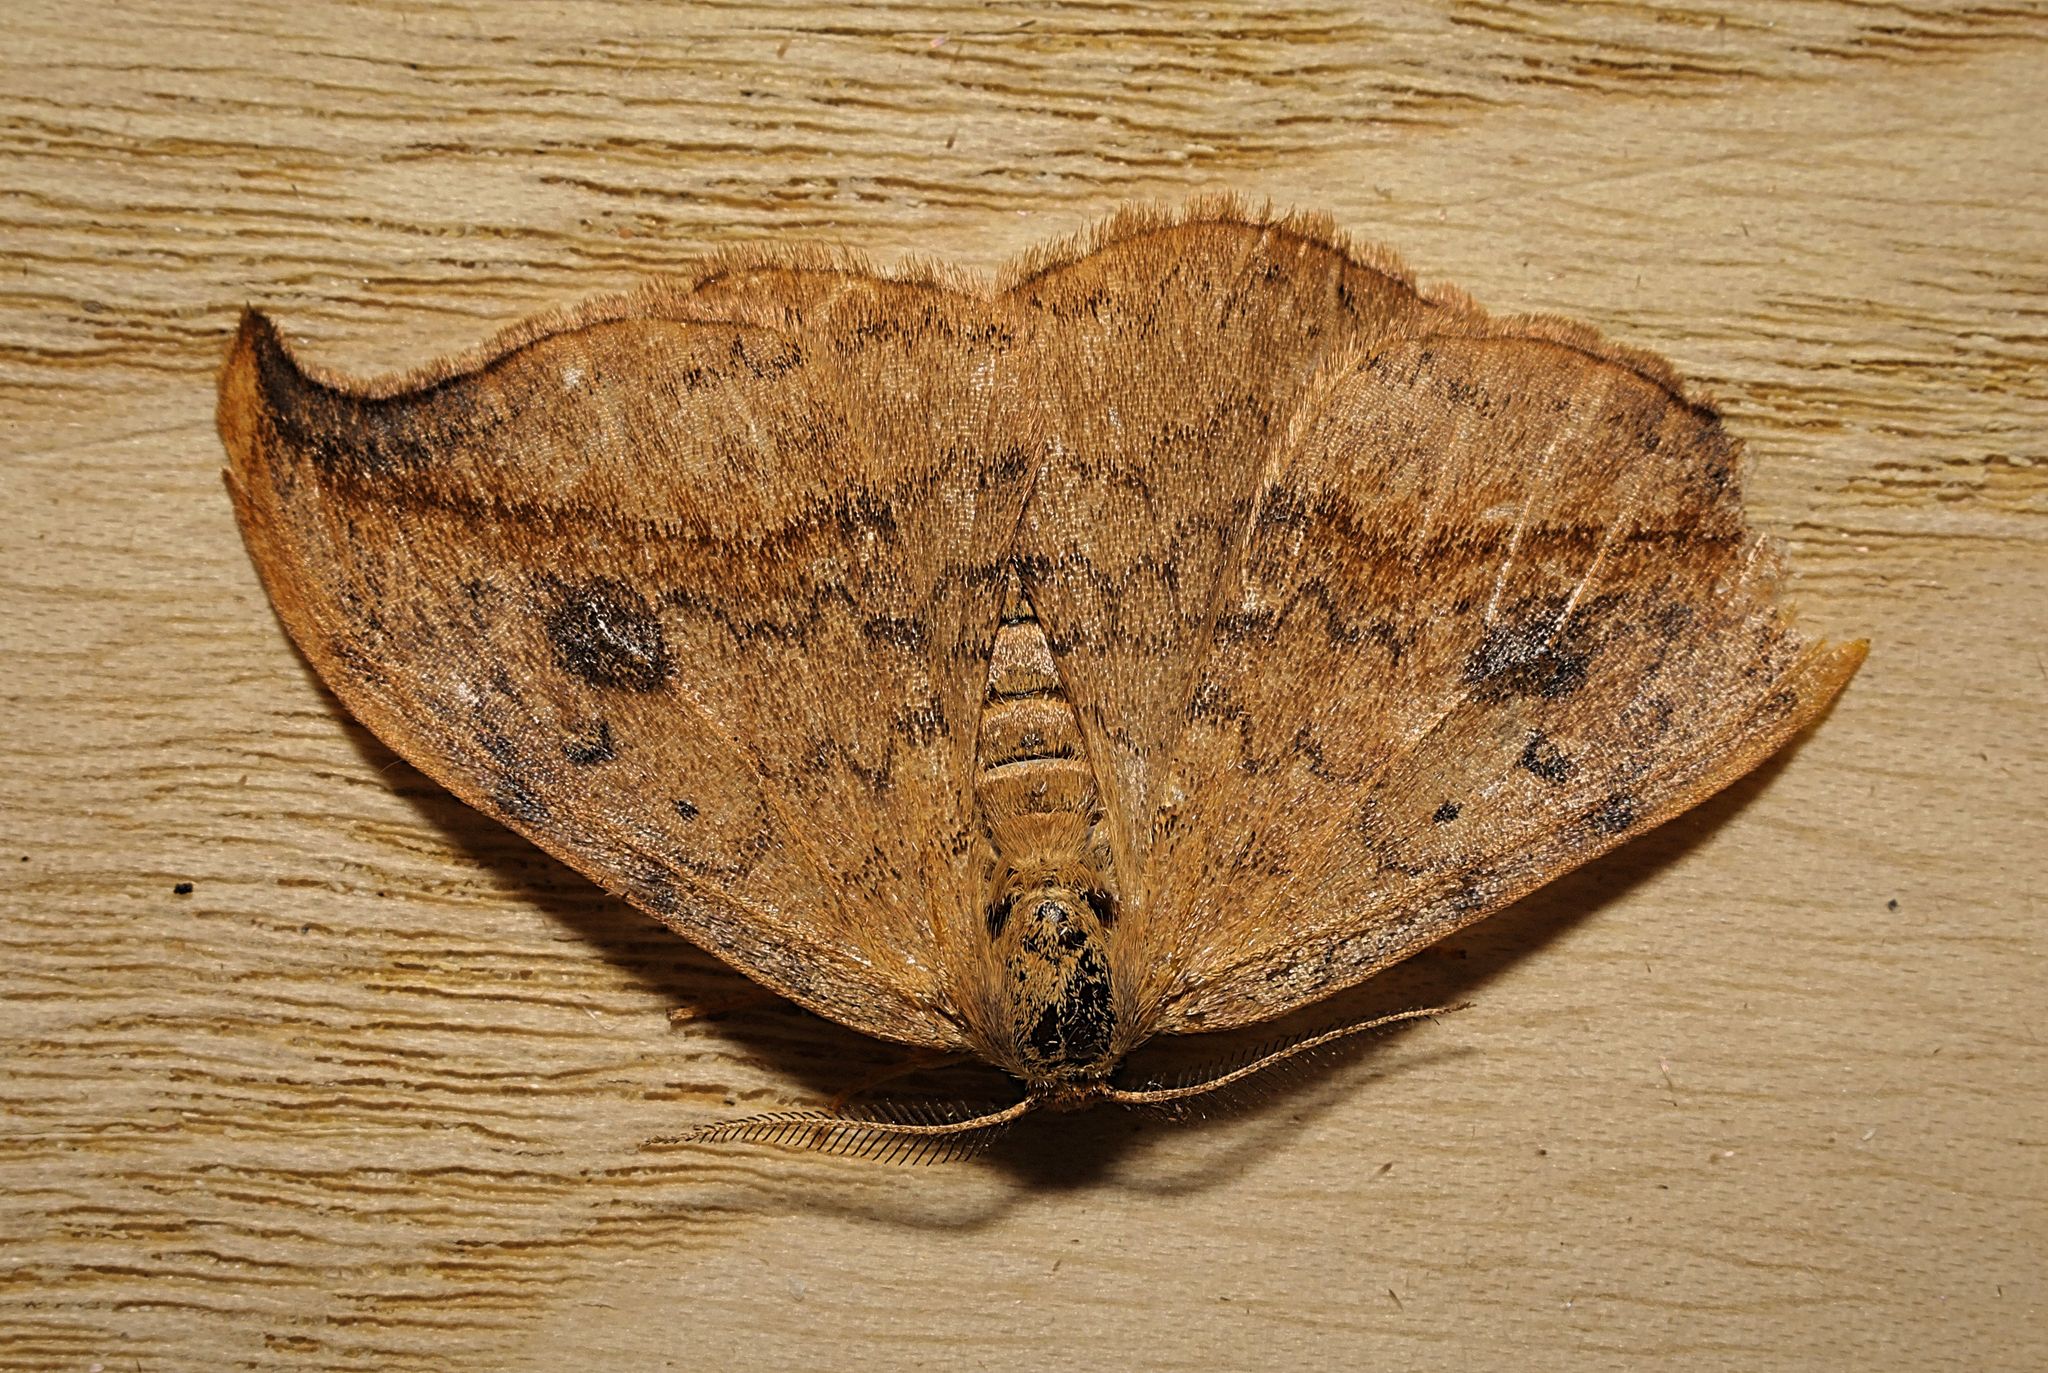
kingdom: Animalia
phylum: Arthropoda
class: Insecta
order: Lepidoptera
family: Drepanidae
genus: Drepana
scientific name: Drepana falcataria
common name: Pebble hook-tip
